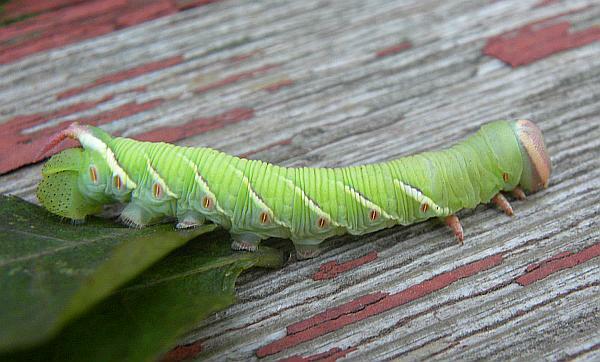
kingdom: Animalia
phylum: Arthropoda
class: Insecta
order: Lepidoptera
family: Sphingidae
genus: Ceratomia
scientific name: Ceratomia undulosa
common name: Waved sphinx
